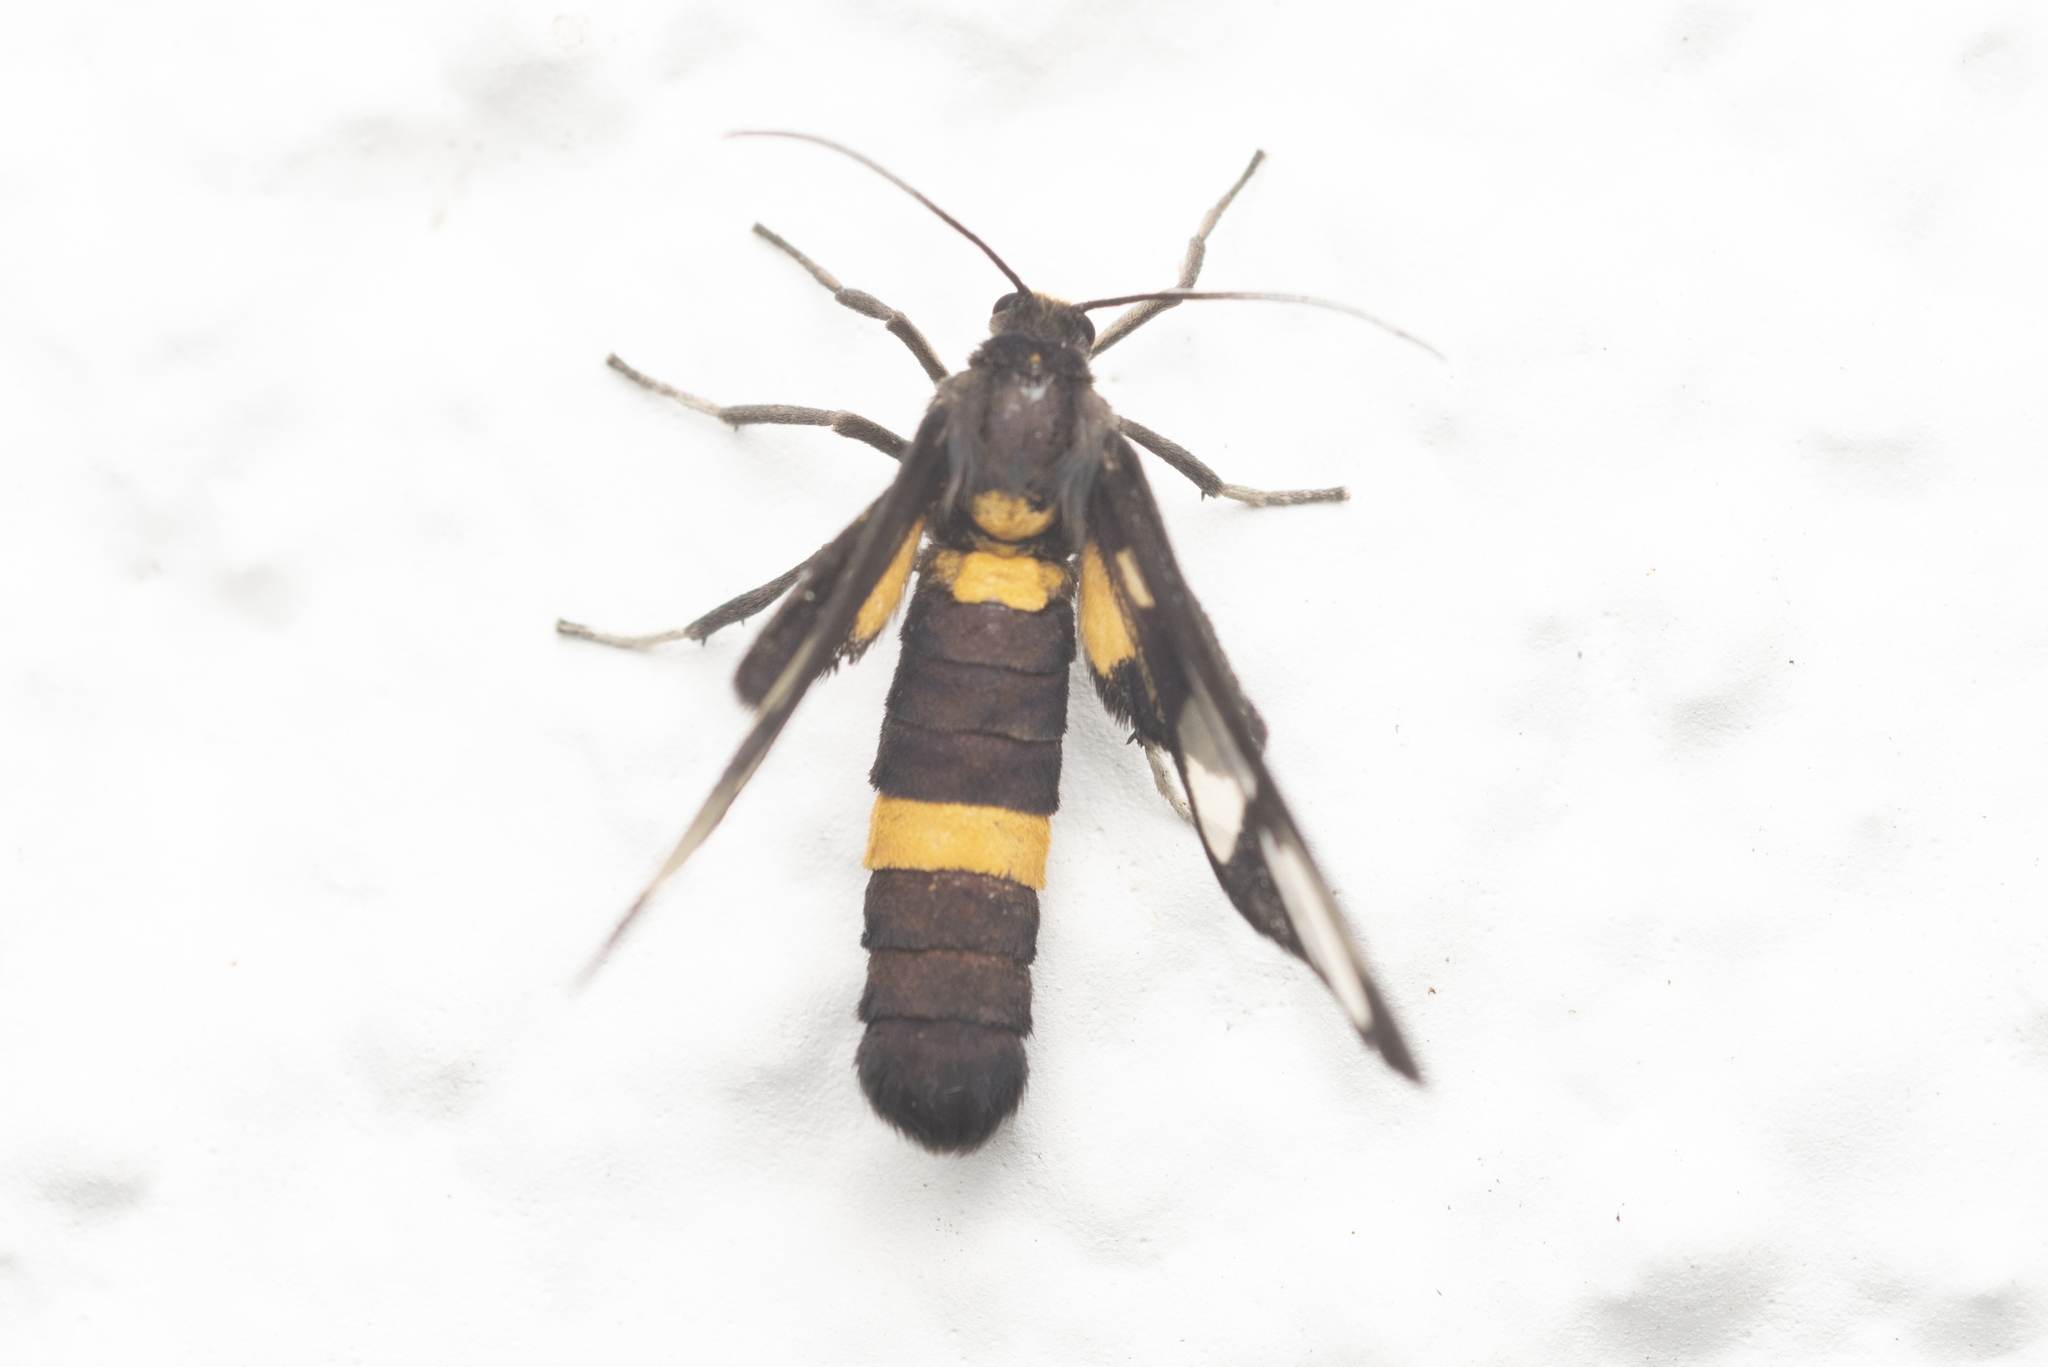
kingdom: Animalia
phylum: Arthropoda
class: Insecta
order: Lepidoptera
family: Erebidae
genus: Amata
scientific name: Amata sperbius
